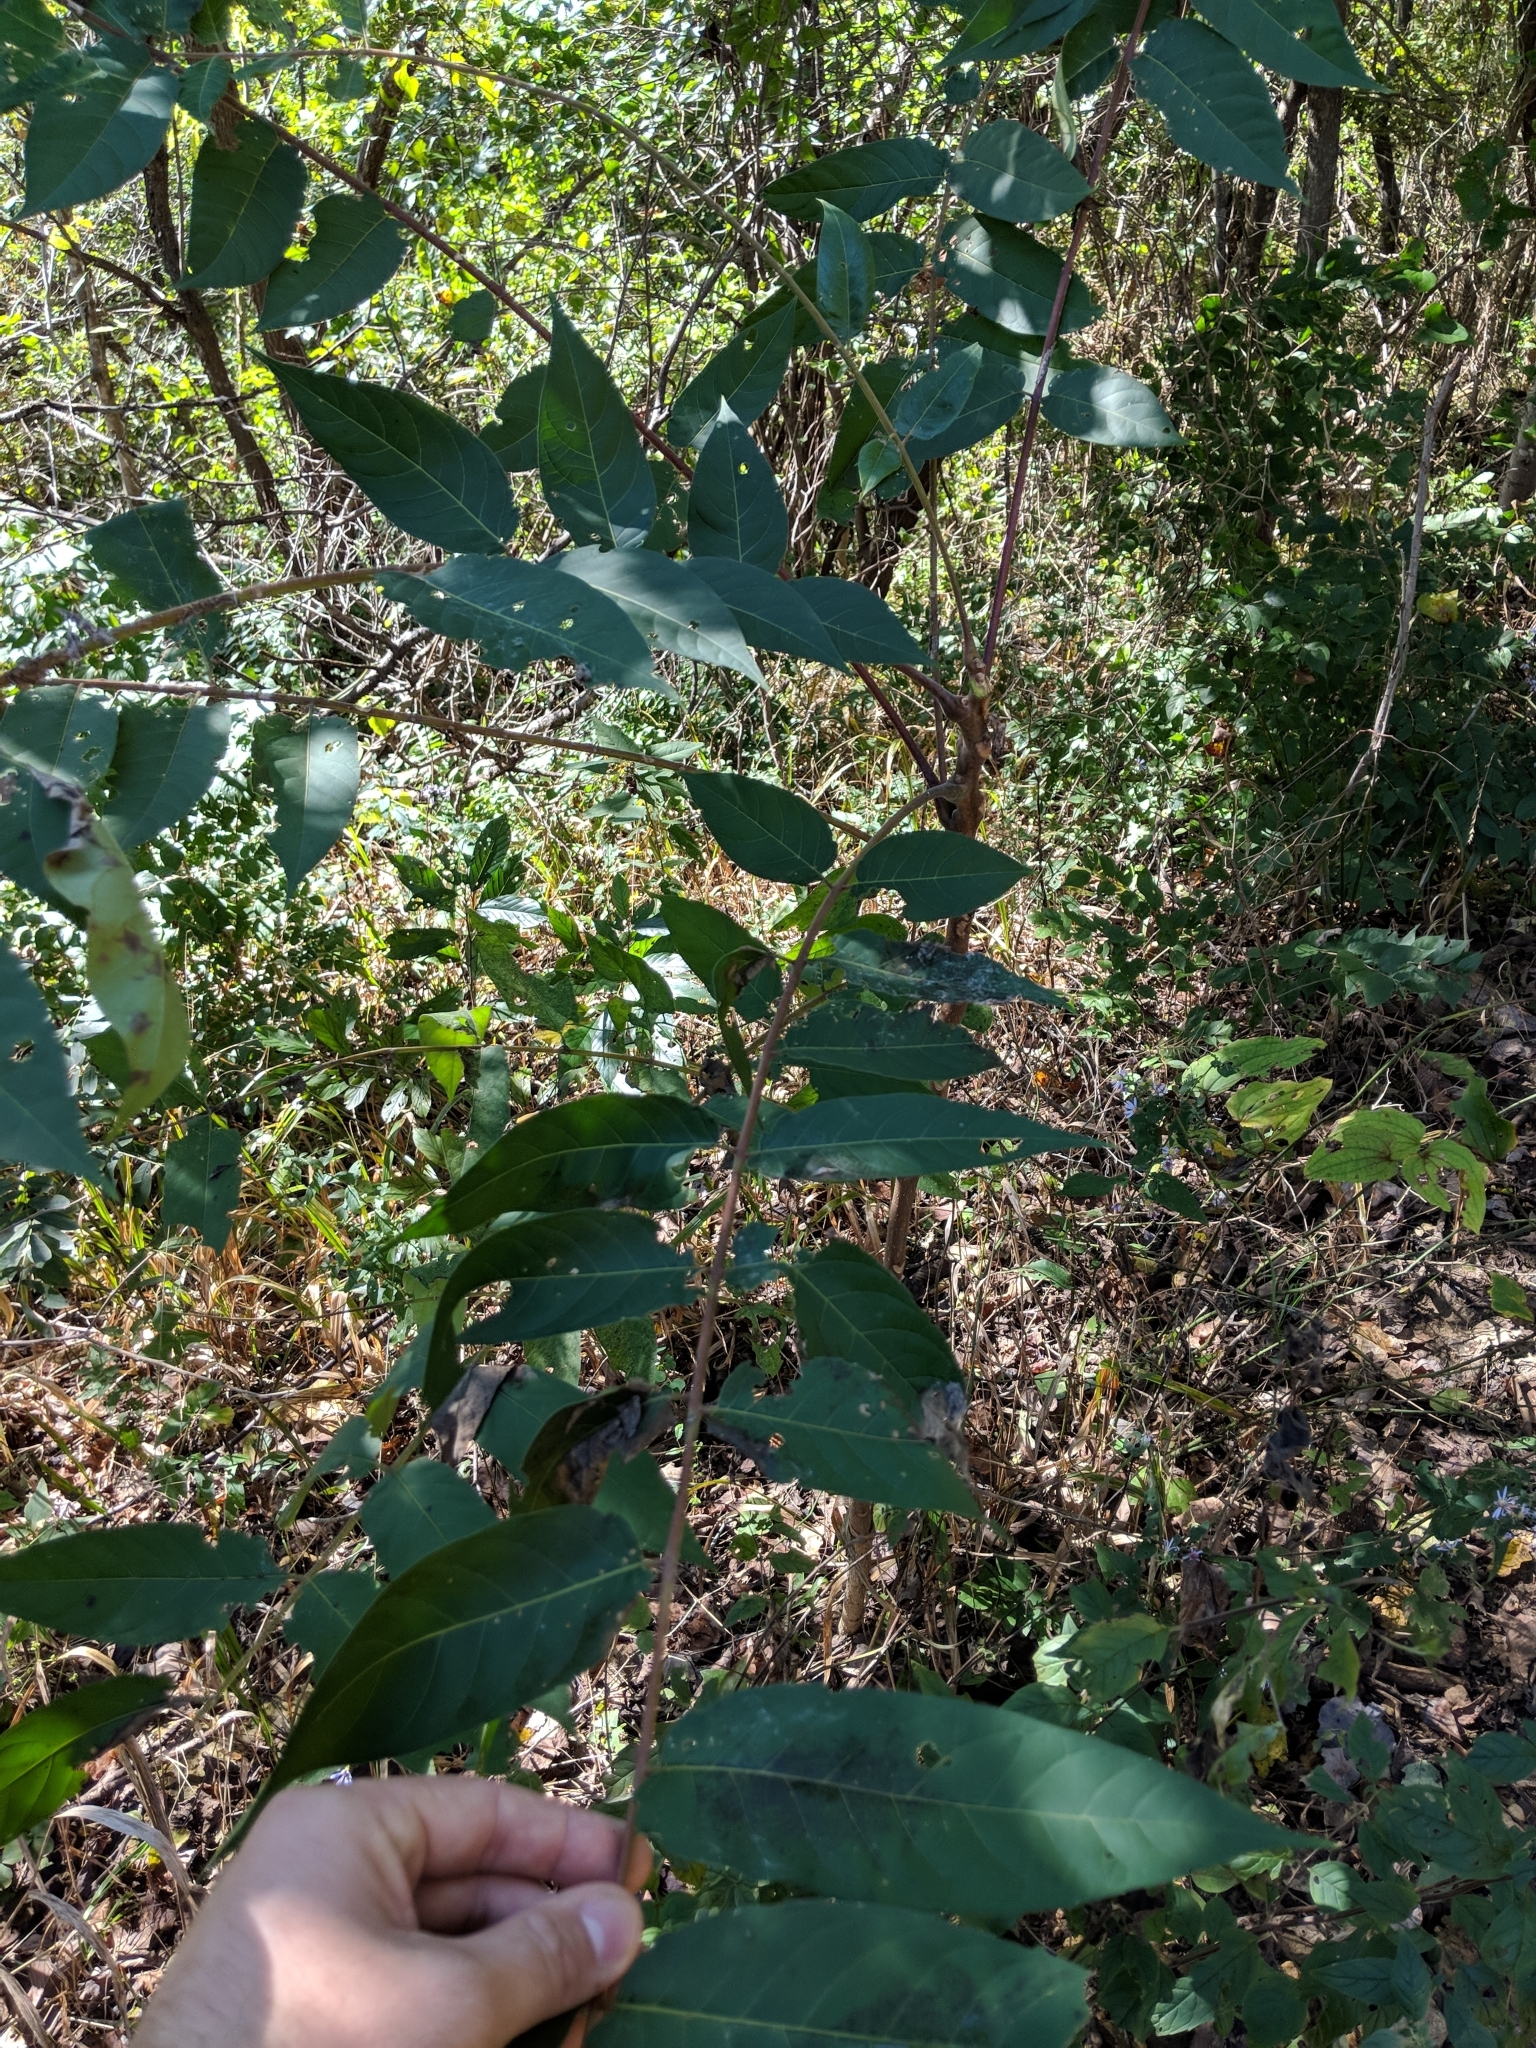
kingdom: Plantae
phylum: Tracheophyta
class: Magnoliopsida
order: Sapindales
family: Simaroubaceae
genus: Ailanthus
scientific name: Ailanthus altissima
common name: Tree-of-heaven
